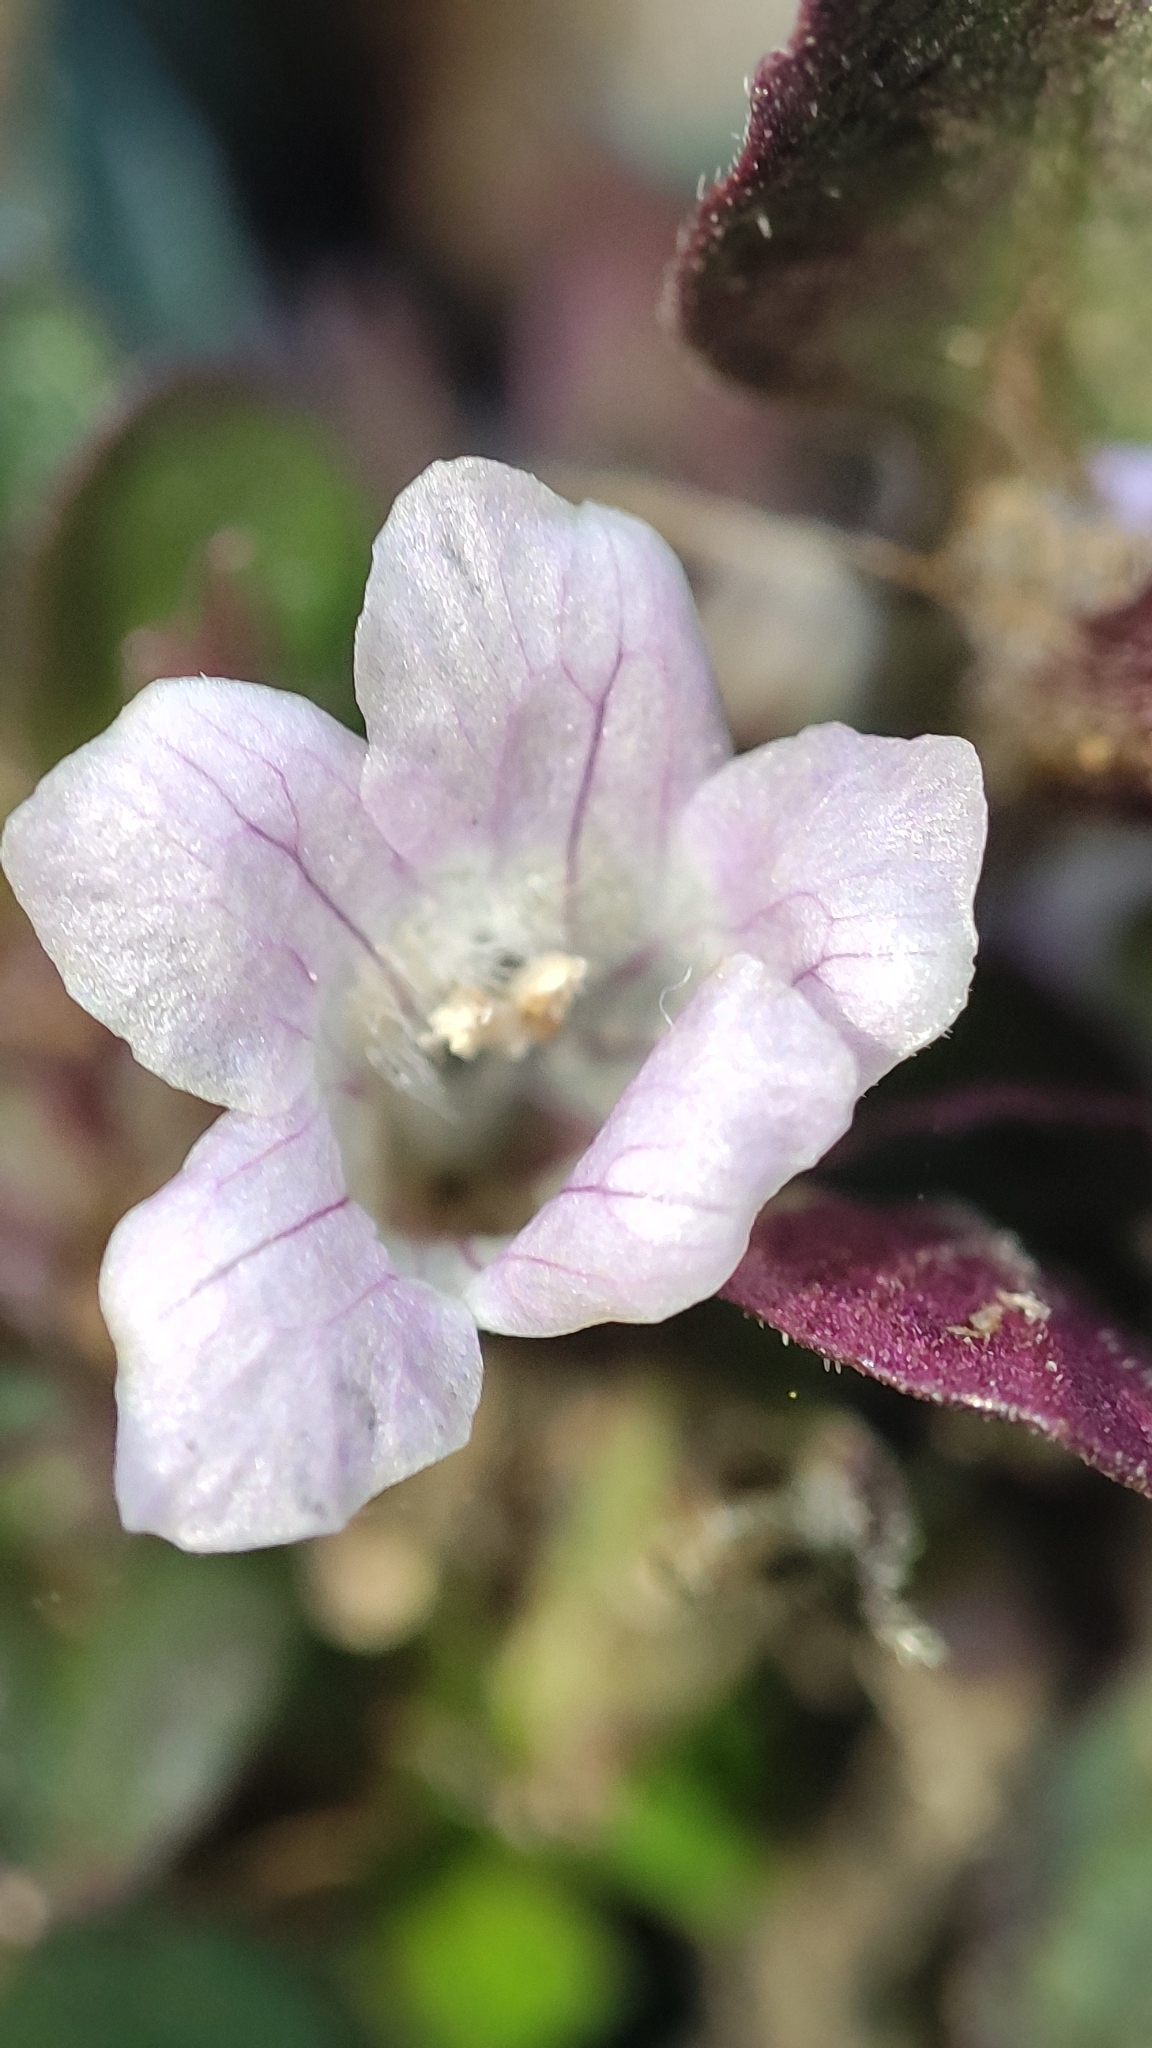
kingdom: Plantae
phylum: Tracheophyta
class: Magnoliopsida
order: Lamiales
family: Acanthaceae
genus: Strobilanthes
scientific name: Strobilanthes reptans
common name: Acanthaceae
